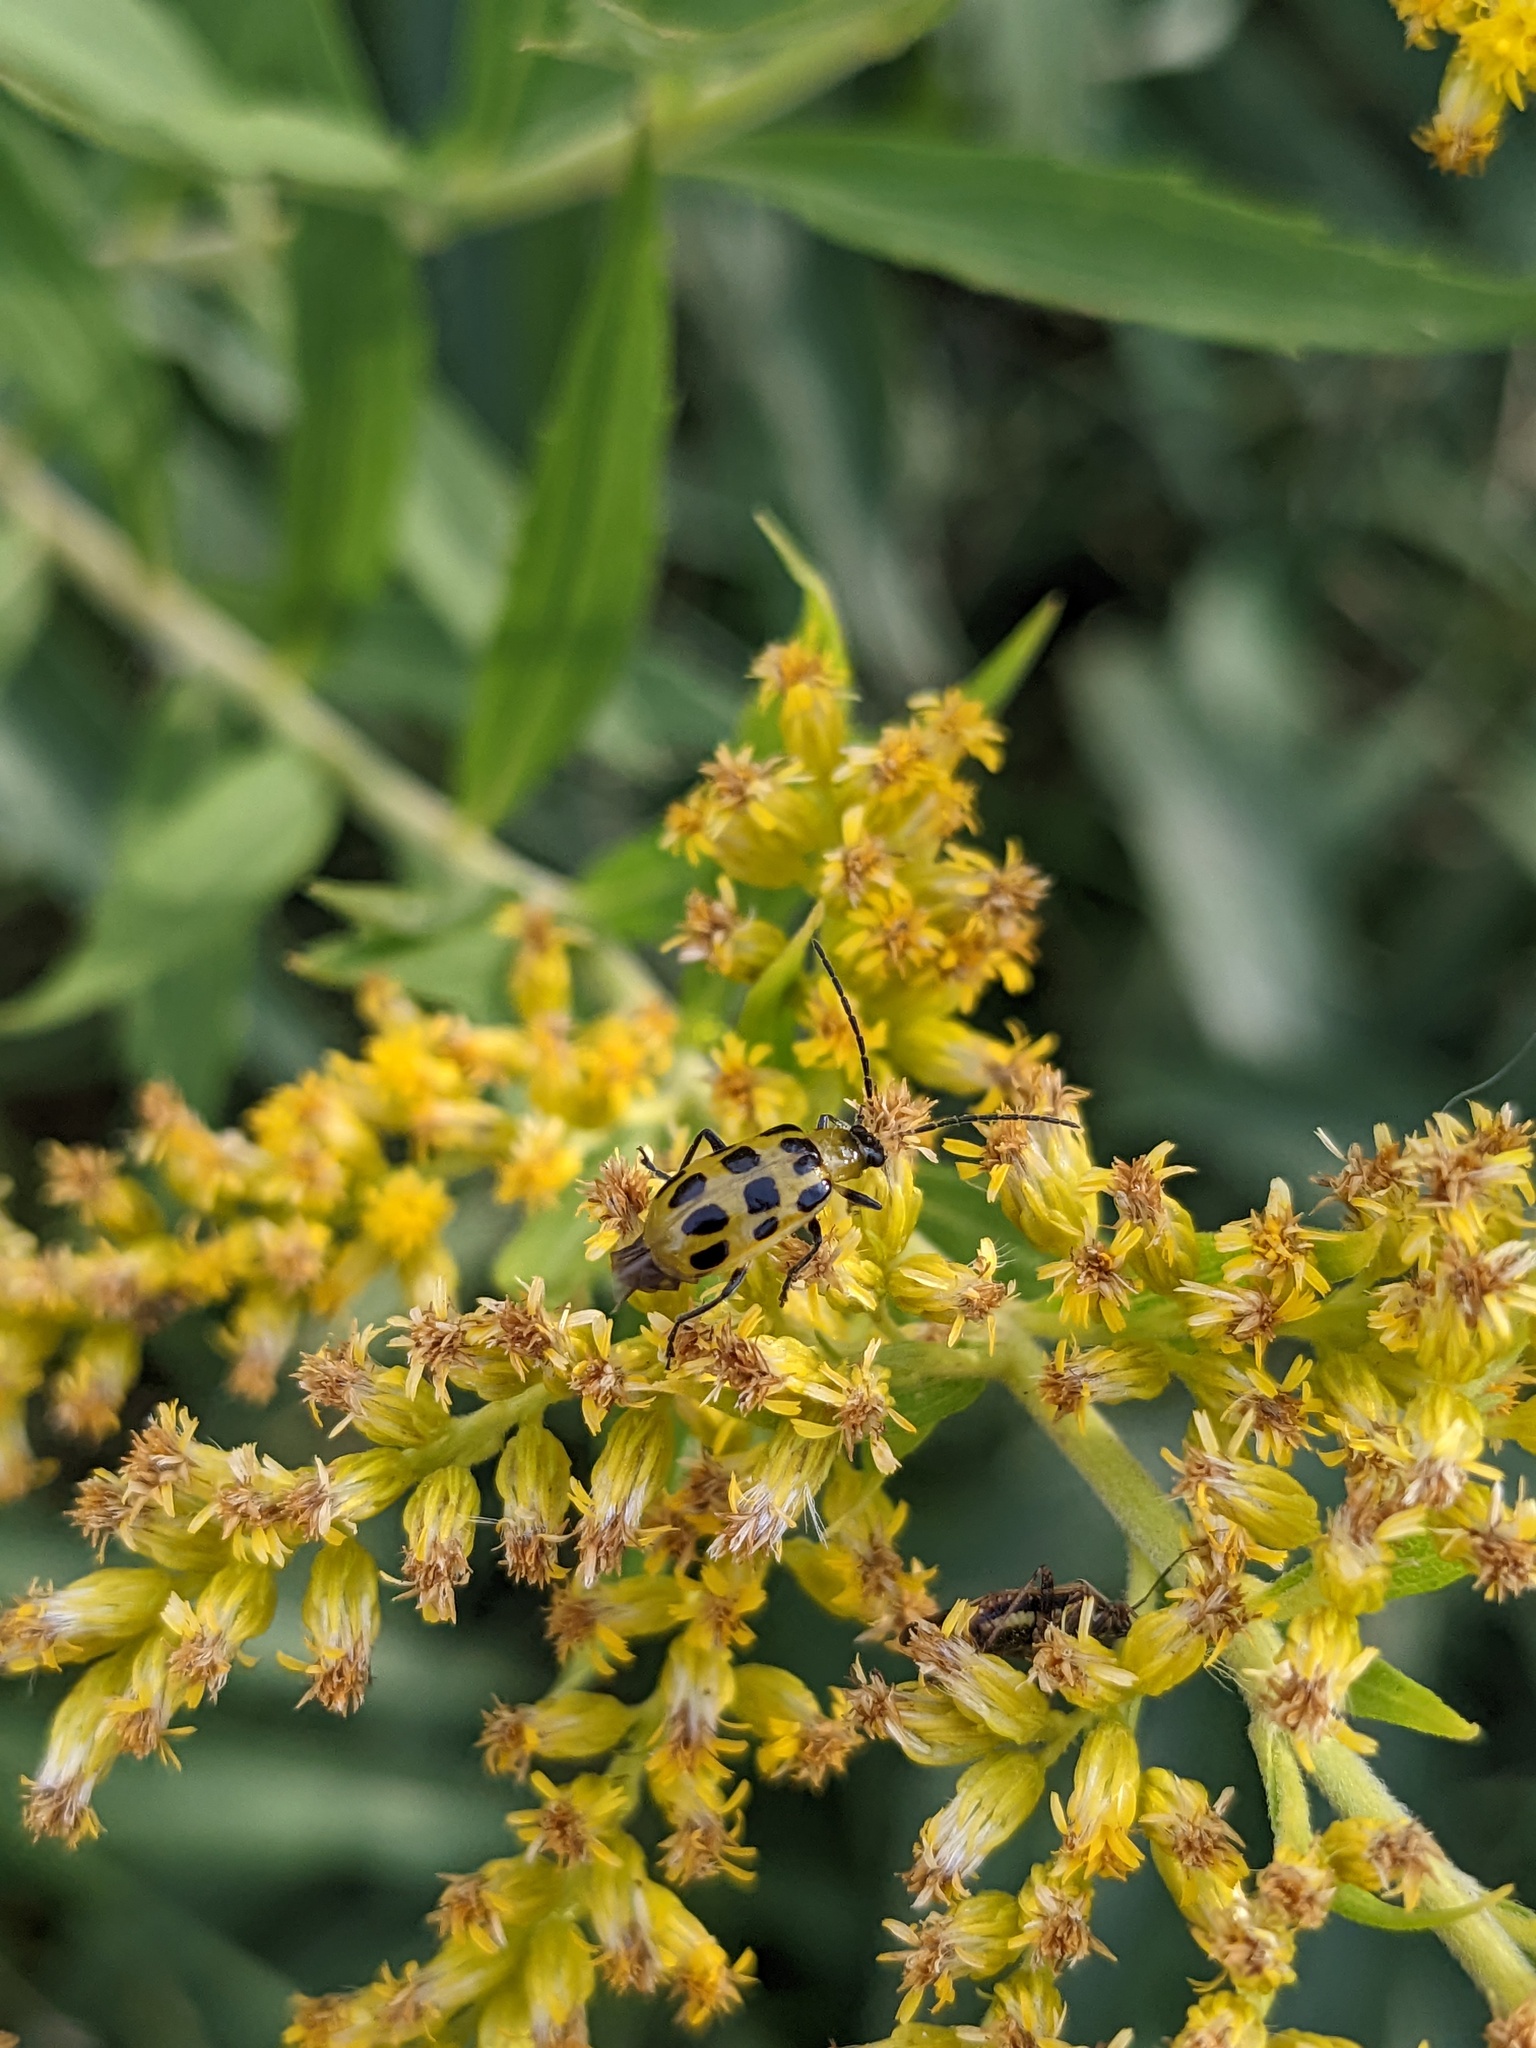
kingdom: Animalia
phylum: Arthropoda
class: Insecta
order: Coleoptera
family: Chrysomelidae
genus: Diabrotica
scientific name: Diabrotica undecimpunctata
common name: Spotted cucumber beetle
